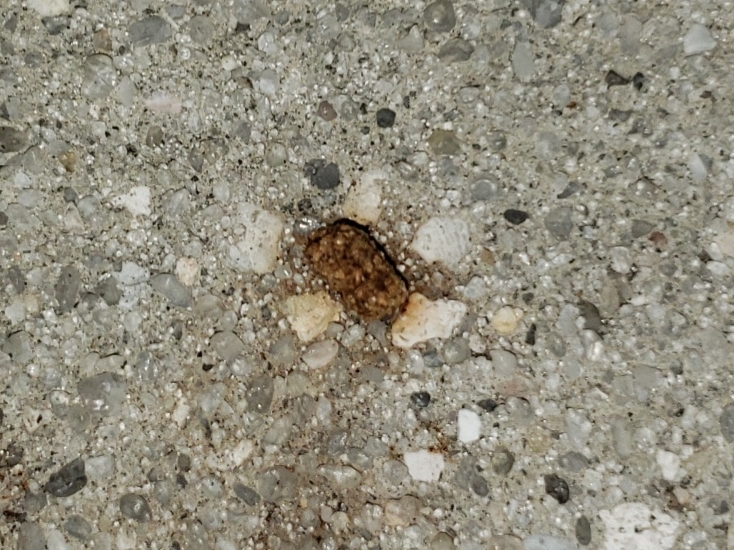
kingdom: Animalia
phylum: Arthropoda
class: Insecta
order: Lepidoptera
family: Saturniidae
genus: Anisota
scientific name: Anisota virginiensis
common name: Pink striped oakworm moth
